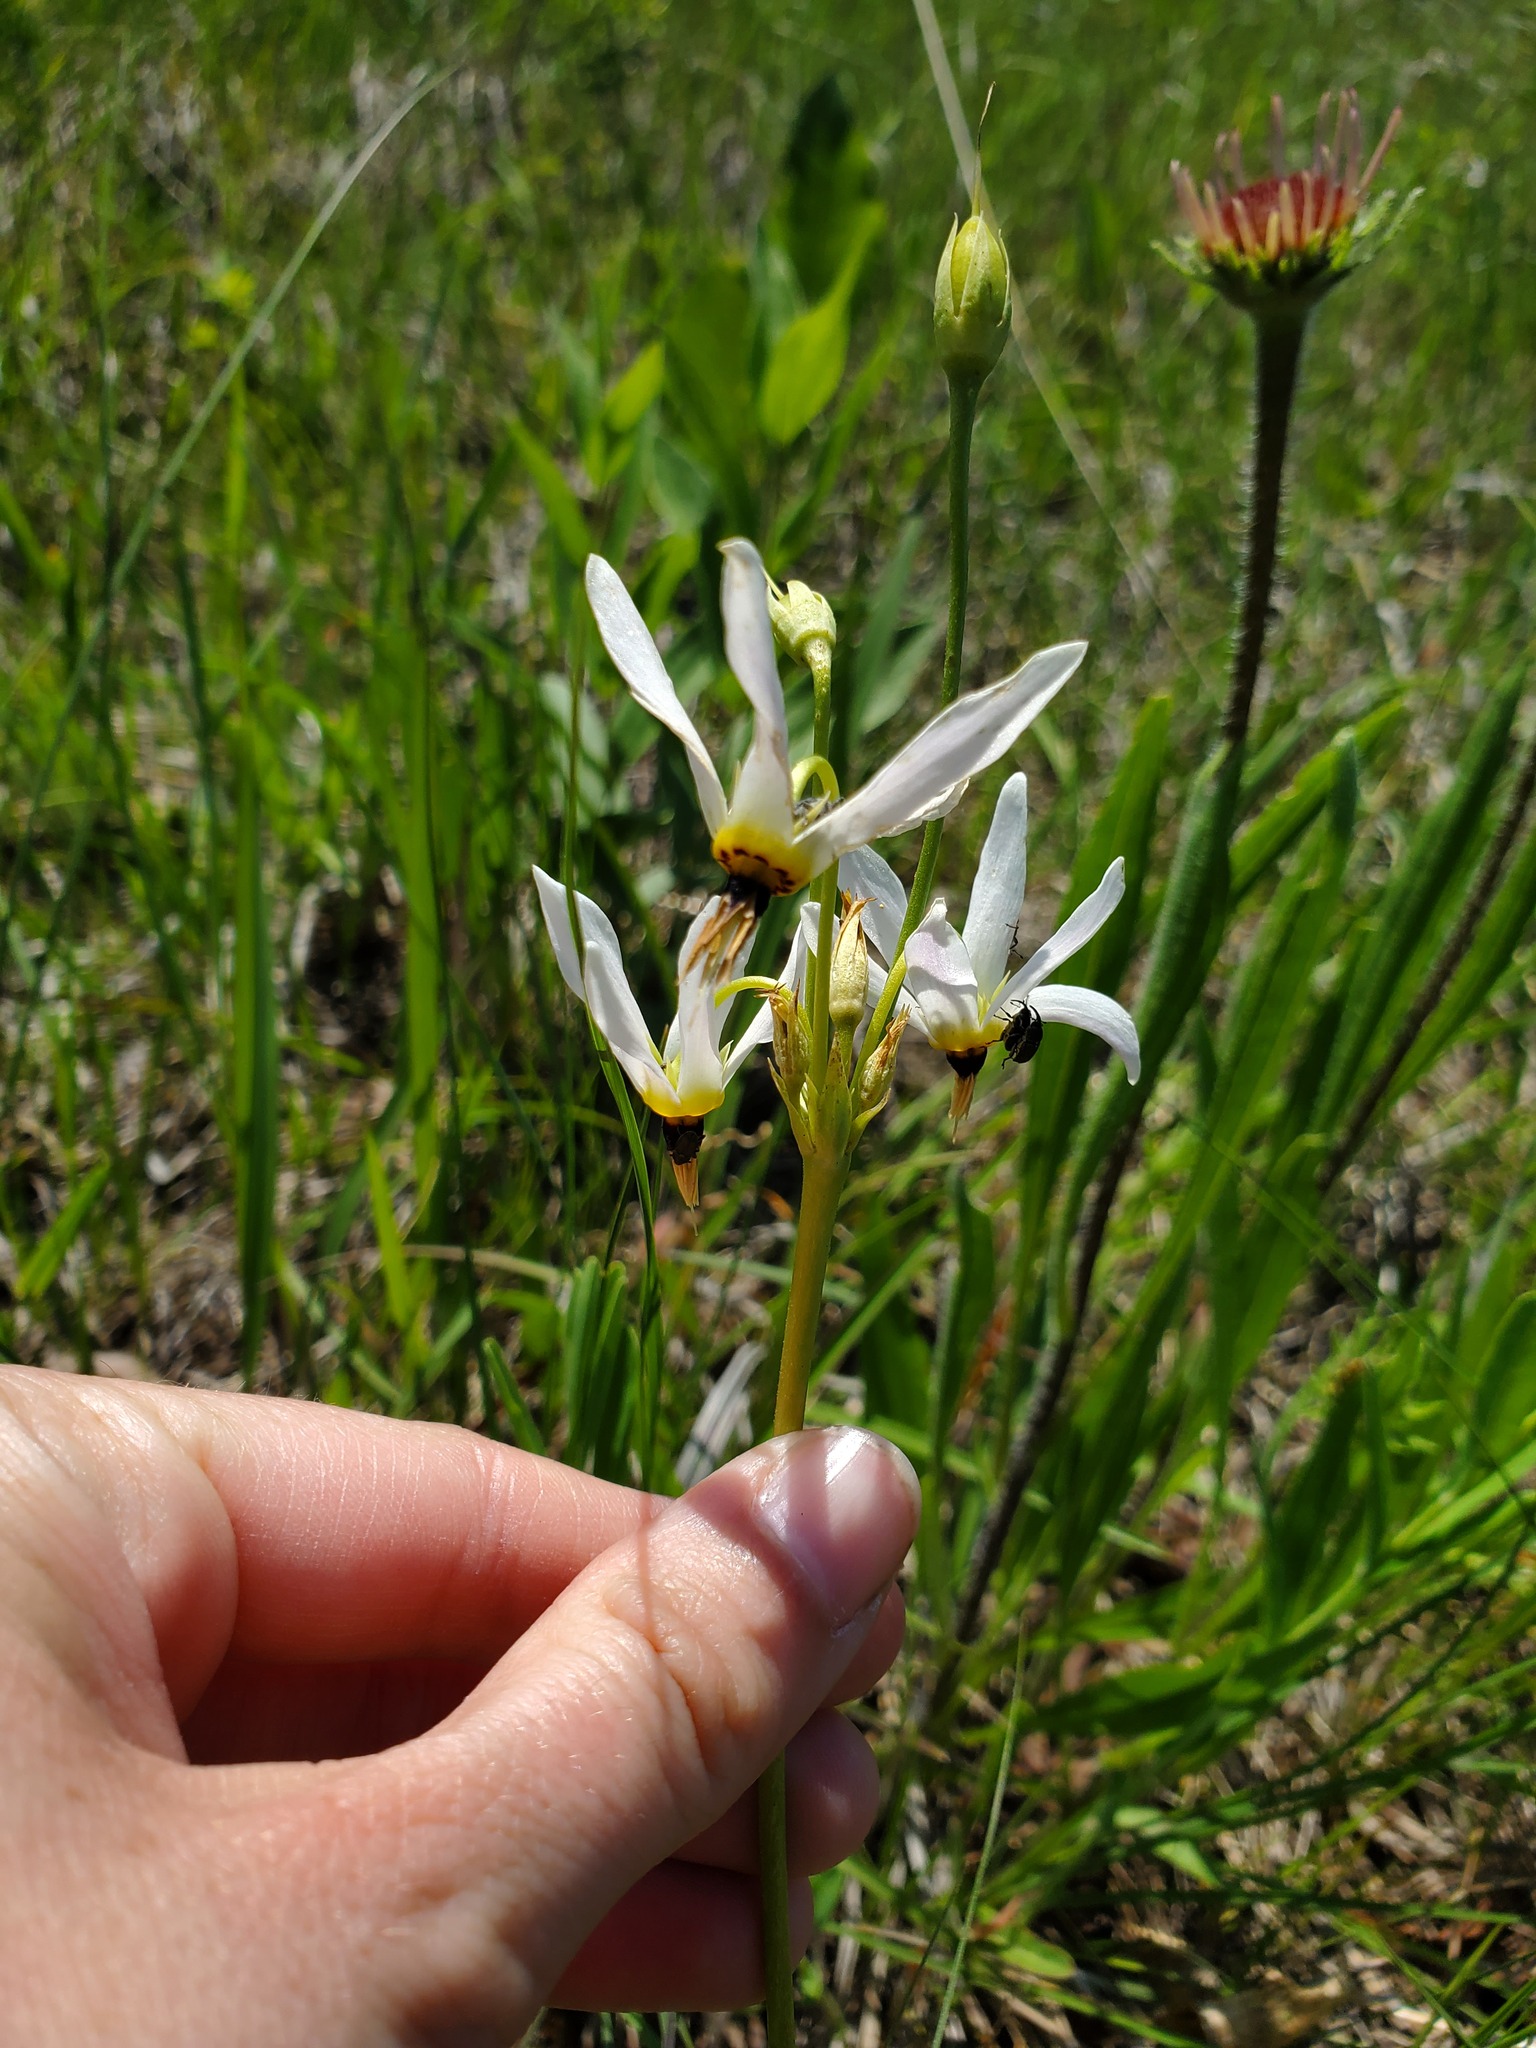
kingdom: Plantae
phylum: Tracheophyta
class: Magnoliopsida
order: Ericales
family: Primulaceae
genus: Dodecatheon
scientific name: Dodecatheon meadia
